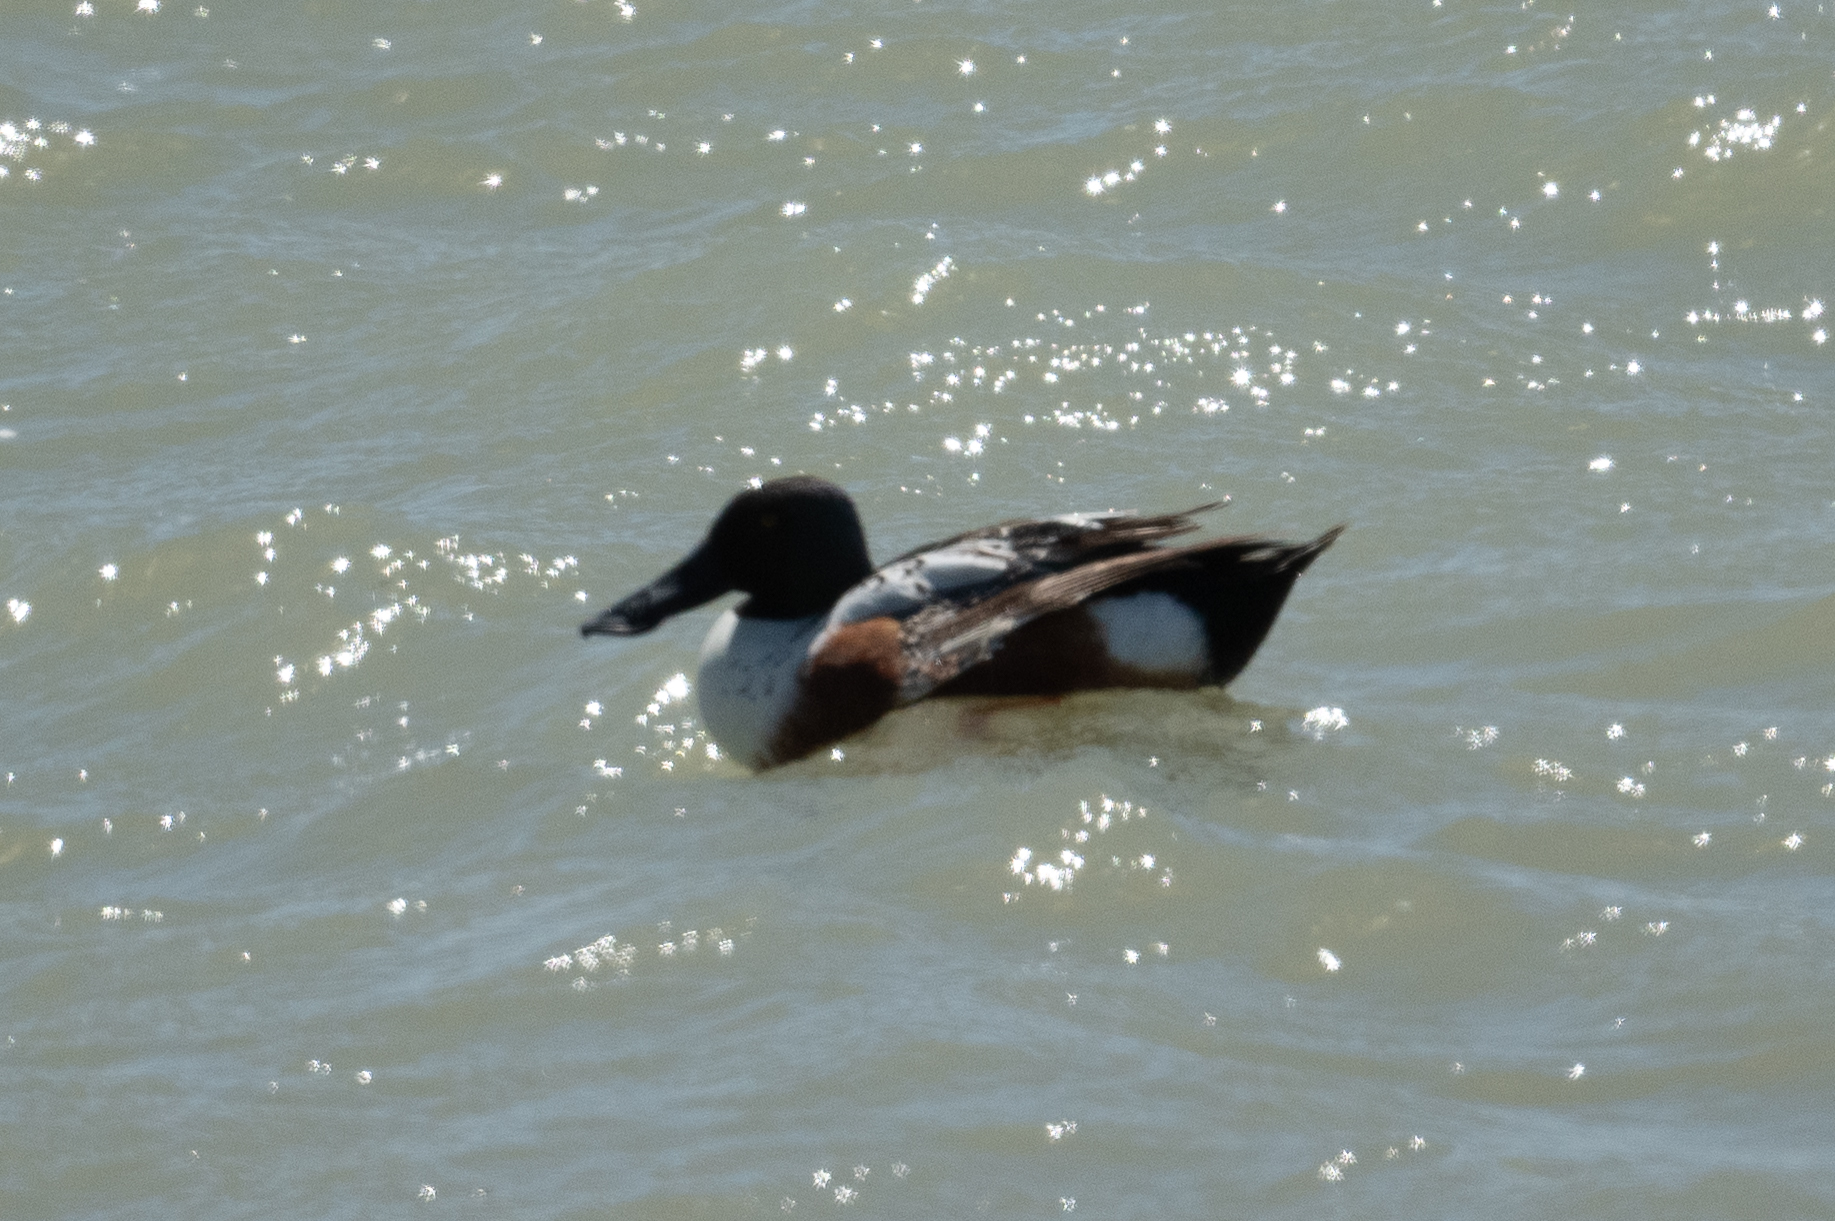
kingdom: Animalia
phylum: Chordata
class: Aves
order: Anseriformes
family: Anatidae
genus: Spatula
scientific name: Spatula clypeata
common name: Northern shoveler
